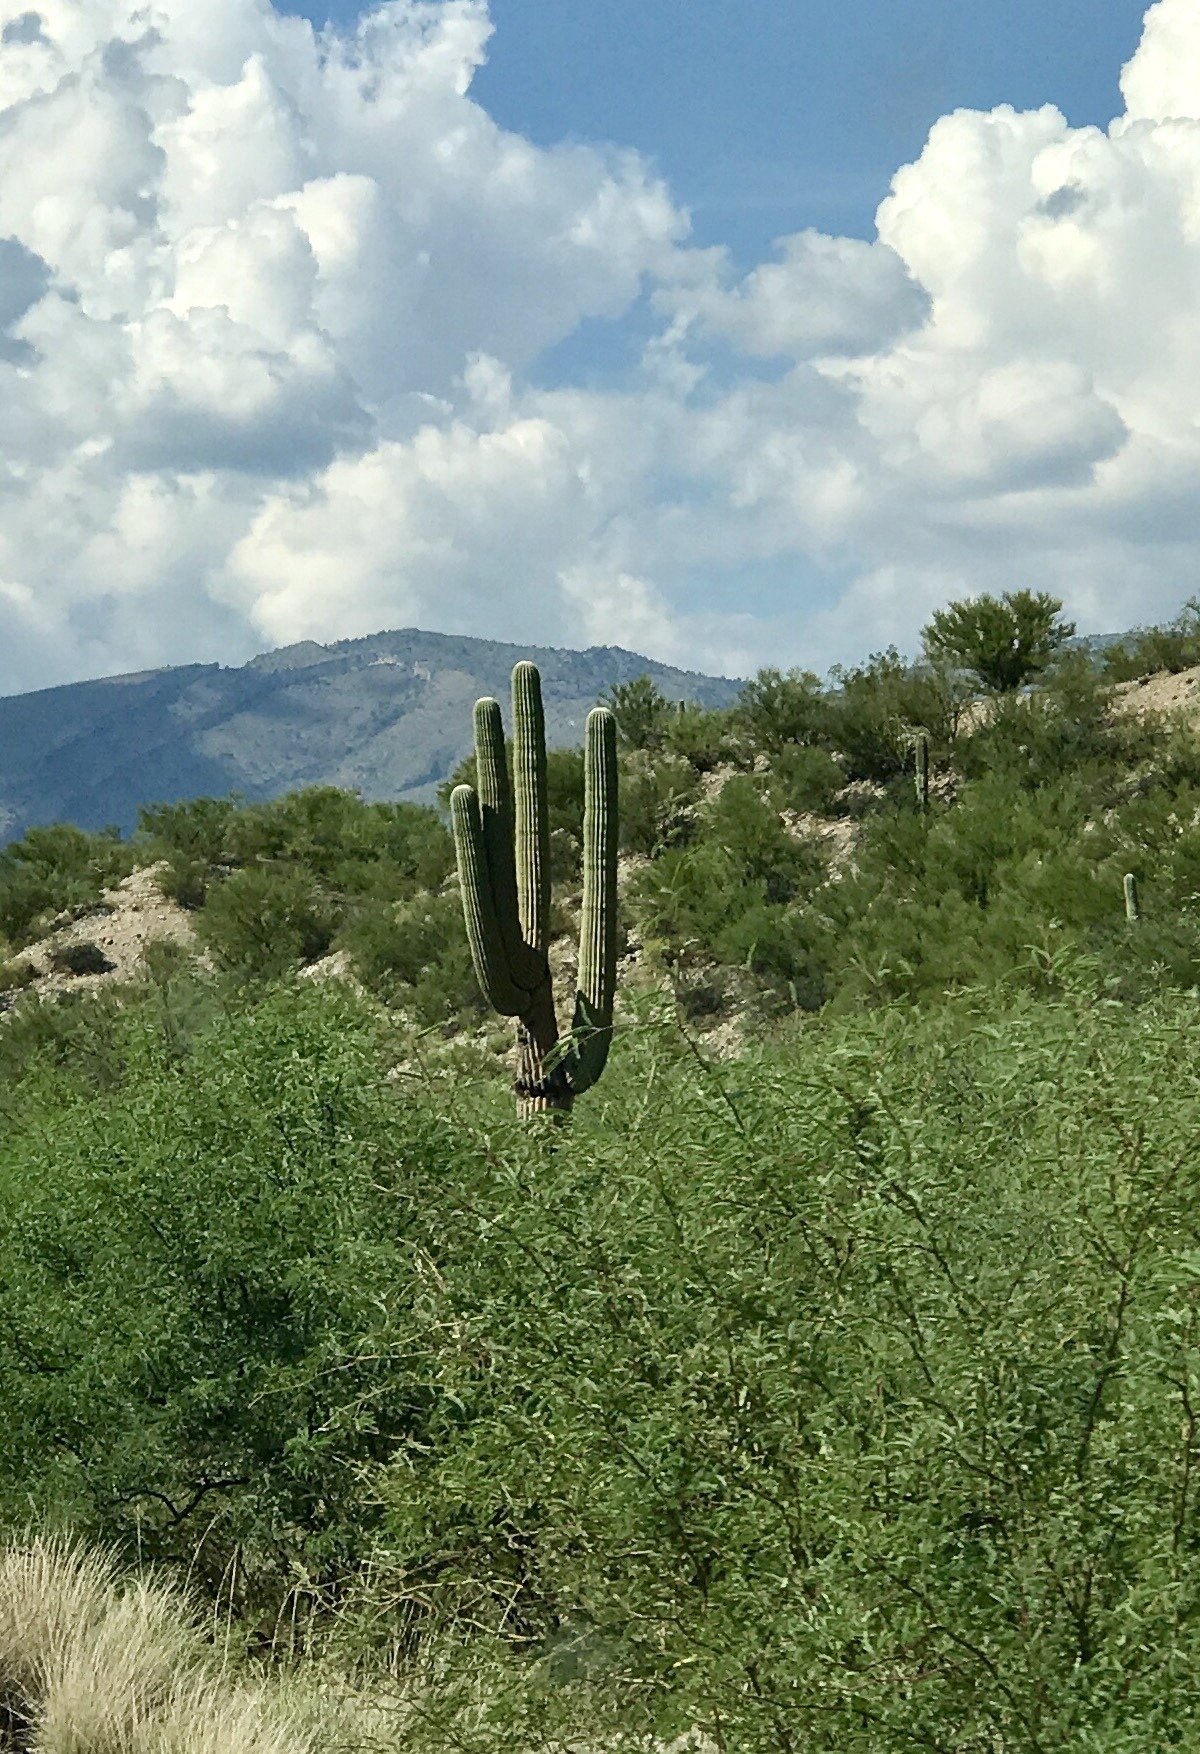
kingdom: Plantae
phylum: Tracheophyta
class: Magnoliopsida
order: Caryophyllales
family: Cactaceae
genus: Carnegiea
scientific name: Carnegiea gigantea
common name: Saguaro
